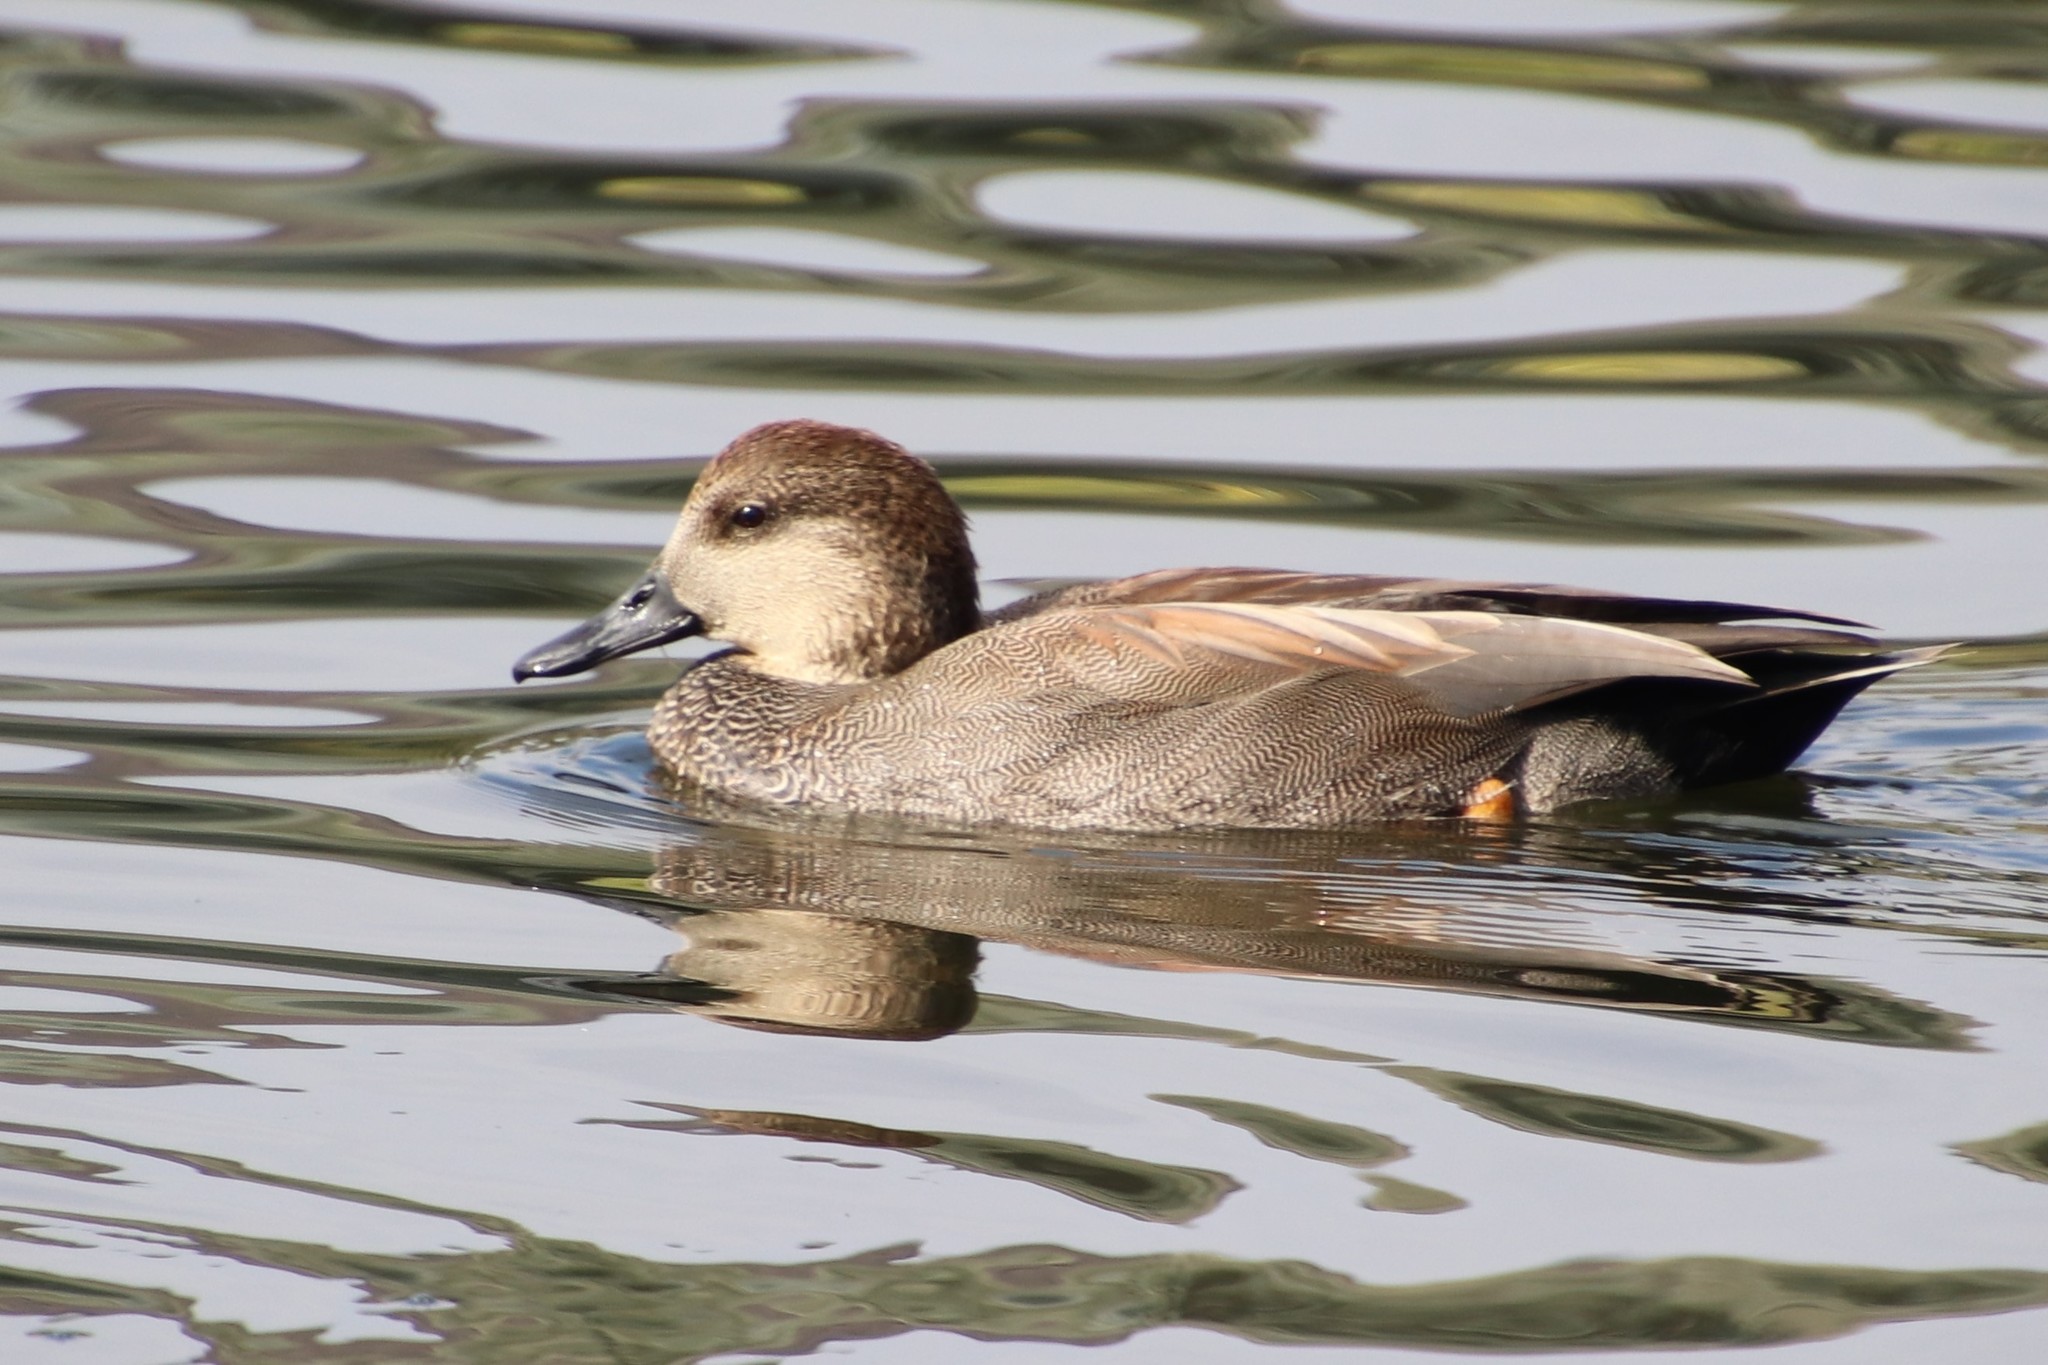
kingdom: Animalia
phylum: Chordata
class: Aves
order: Anseriformes
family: Anatidae
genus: Mareca
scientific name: Mareca strepera
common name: Gadwall
